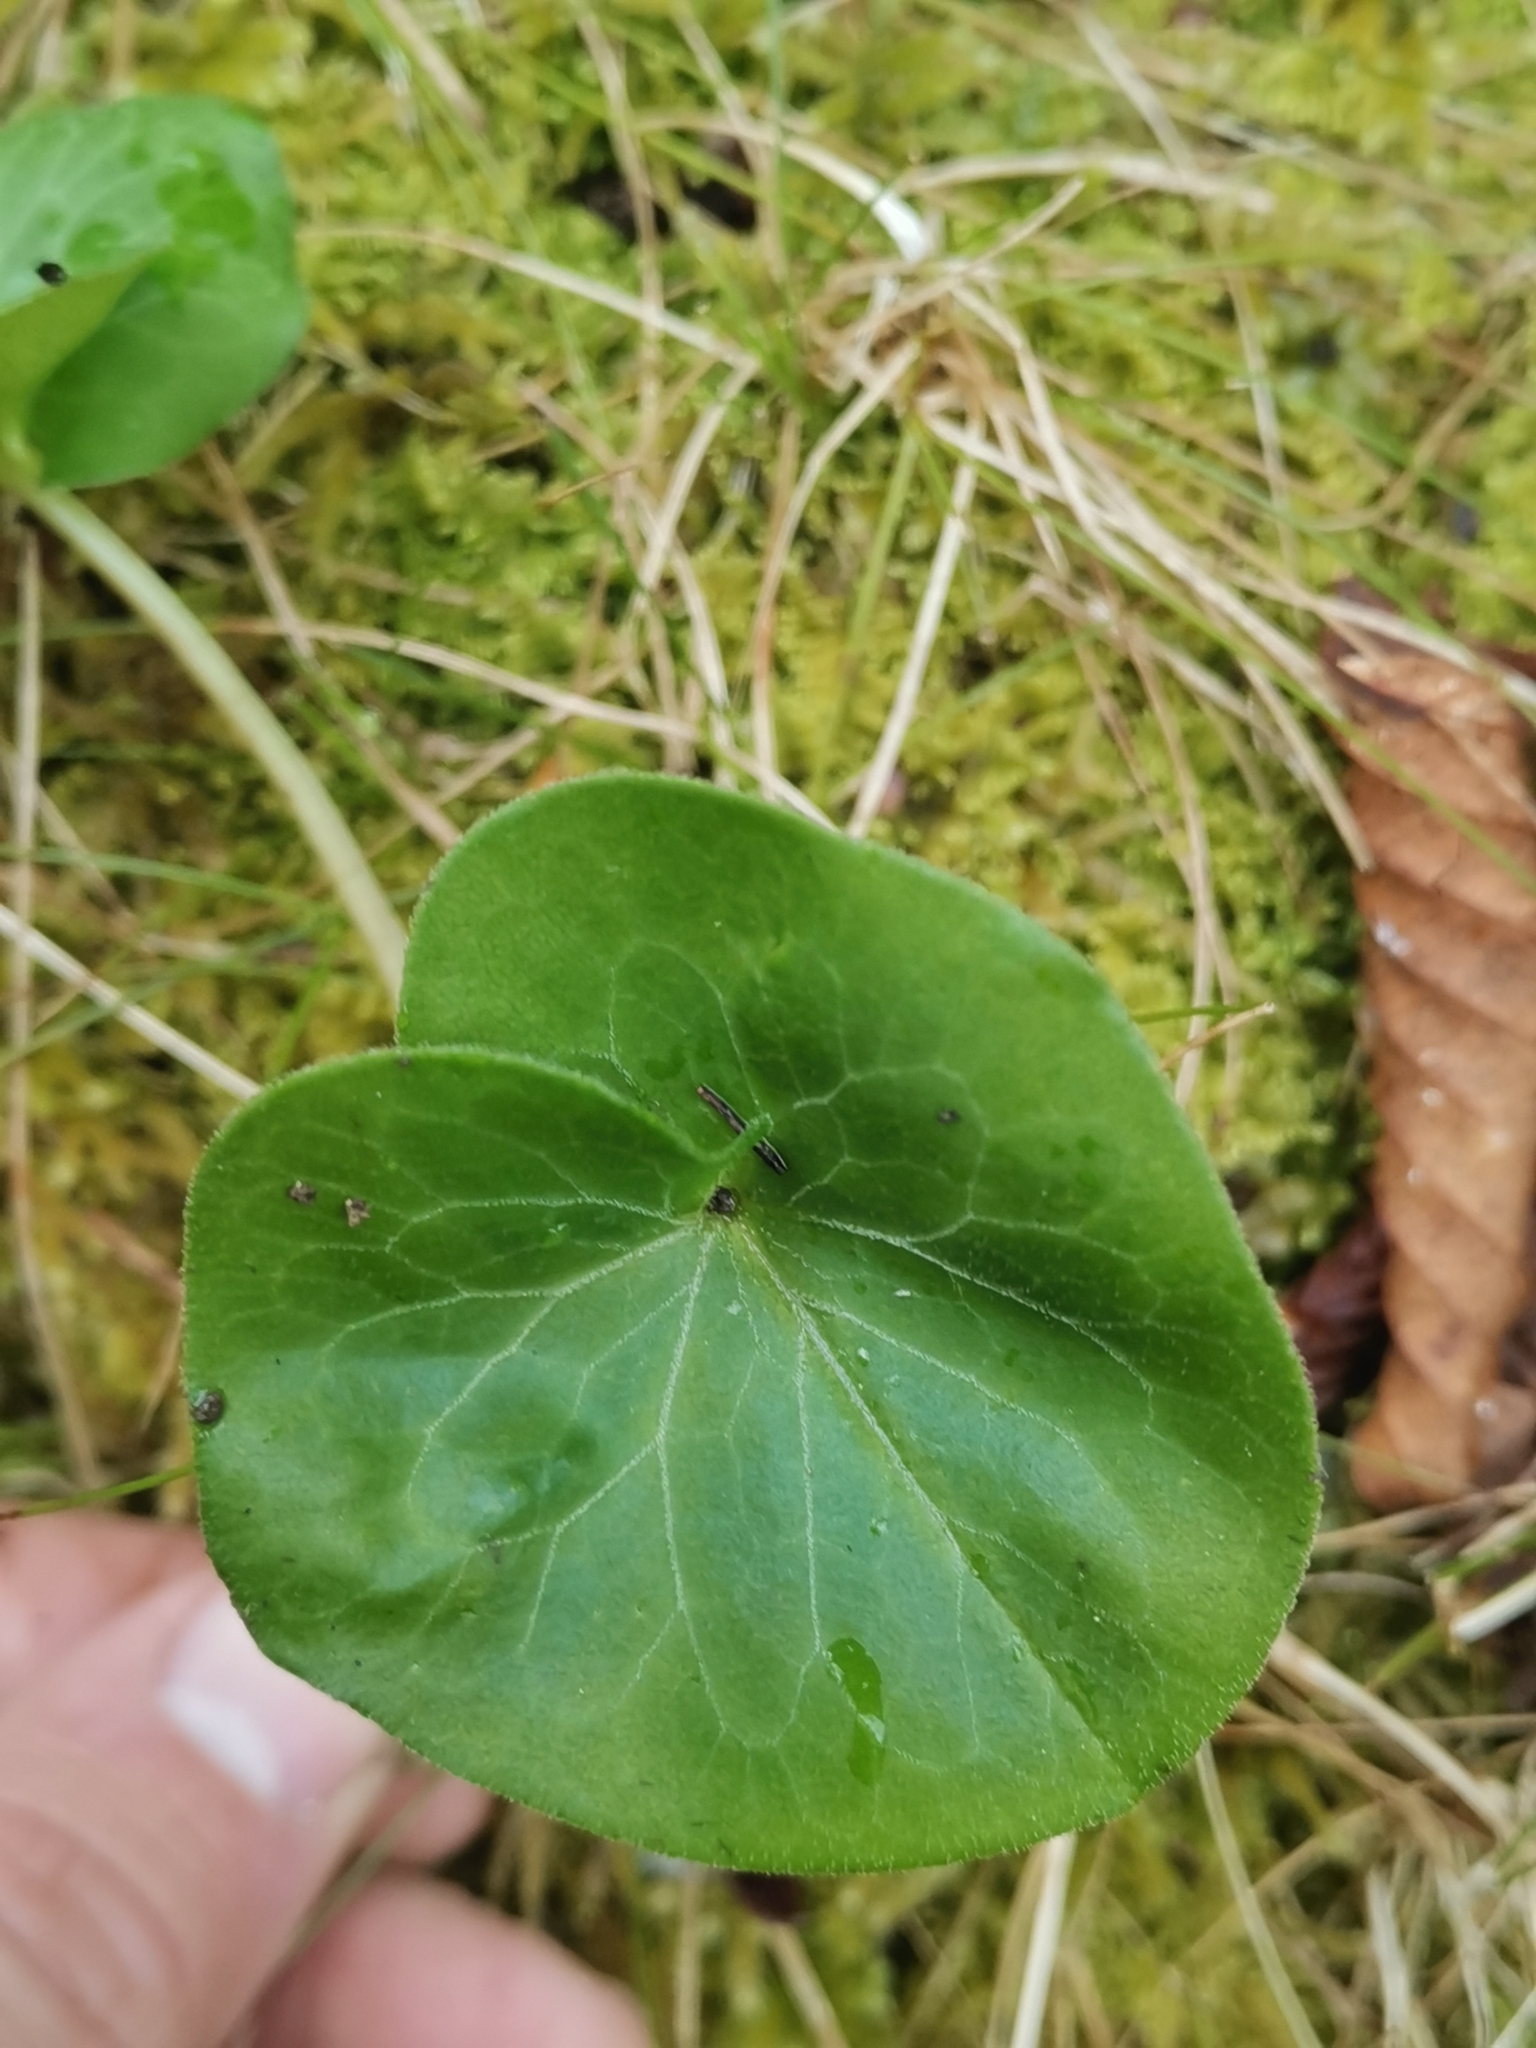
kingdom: Plantae
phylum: Tracheophyta
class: Magnoliopsida
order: Piperales
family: Aristolochiaceae
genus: Asarum
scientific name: Asarum europaeum
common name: Asarabacca
